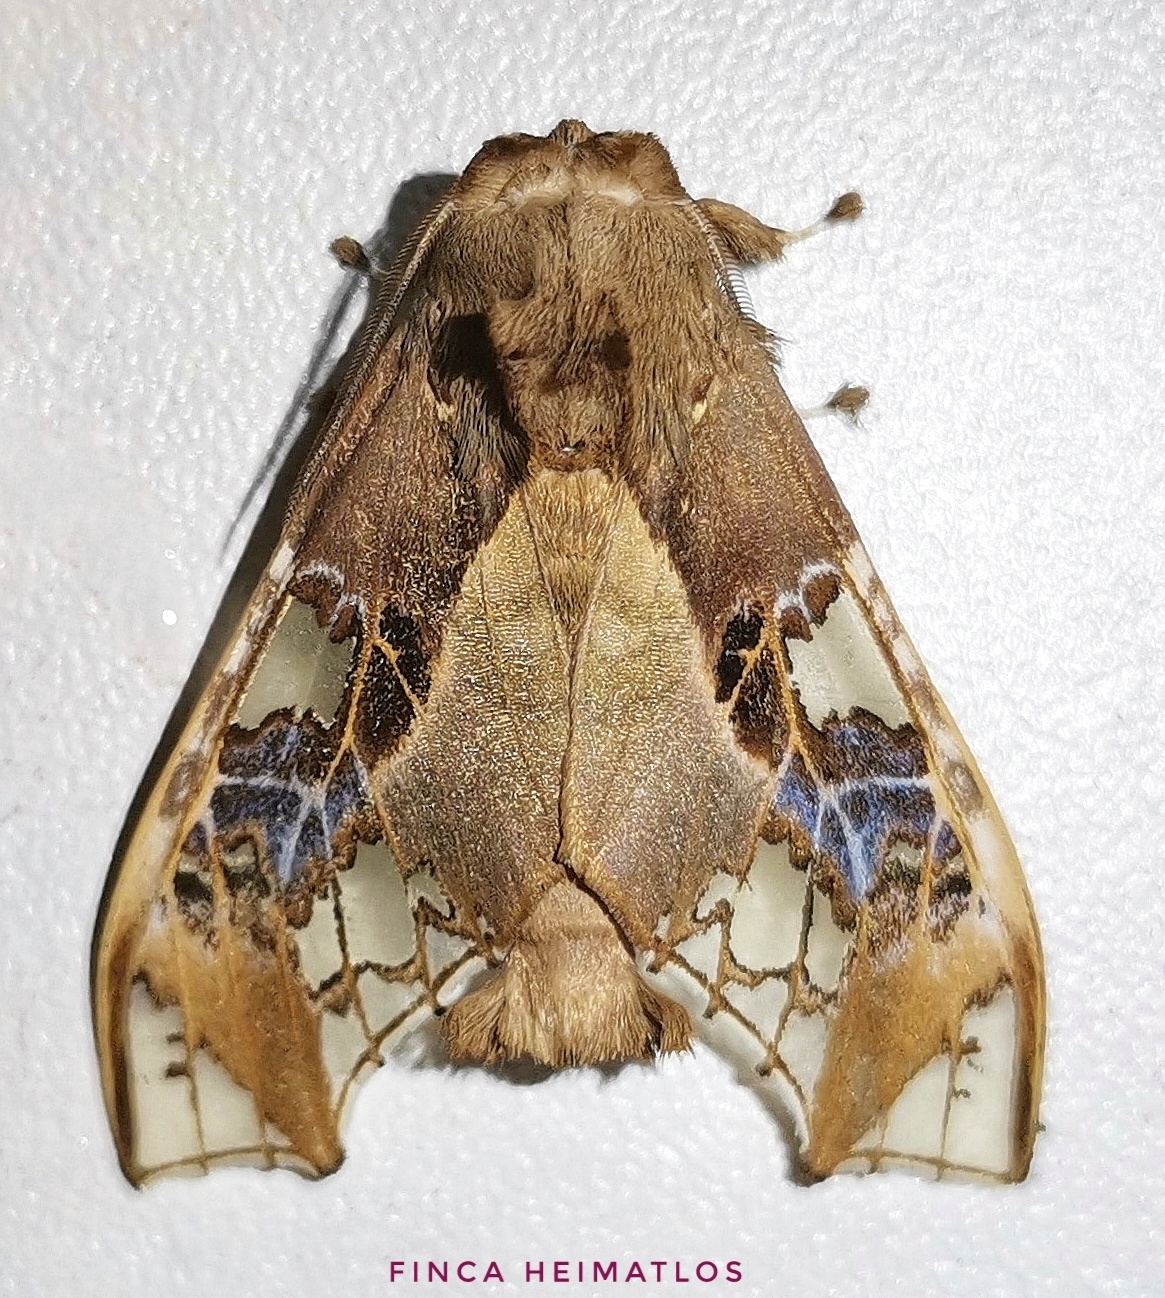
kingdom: Animalia
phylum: Arthropoda
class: Insecta
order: Lepidoptera
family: Erebidae
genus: Parathyris
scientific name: Parathyris cedonulli
